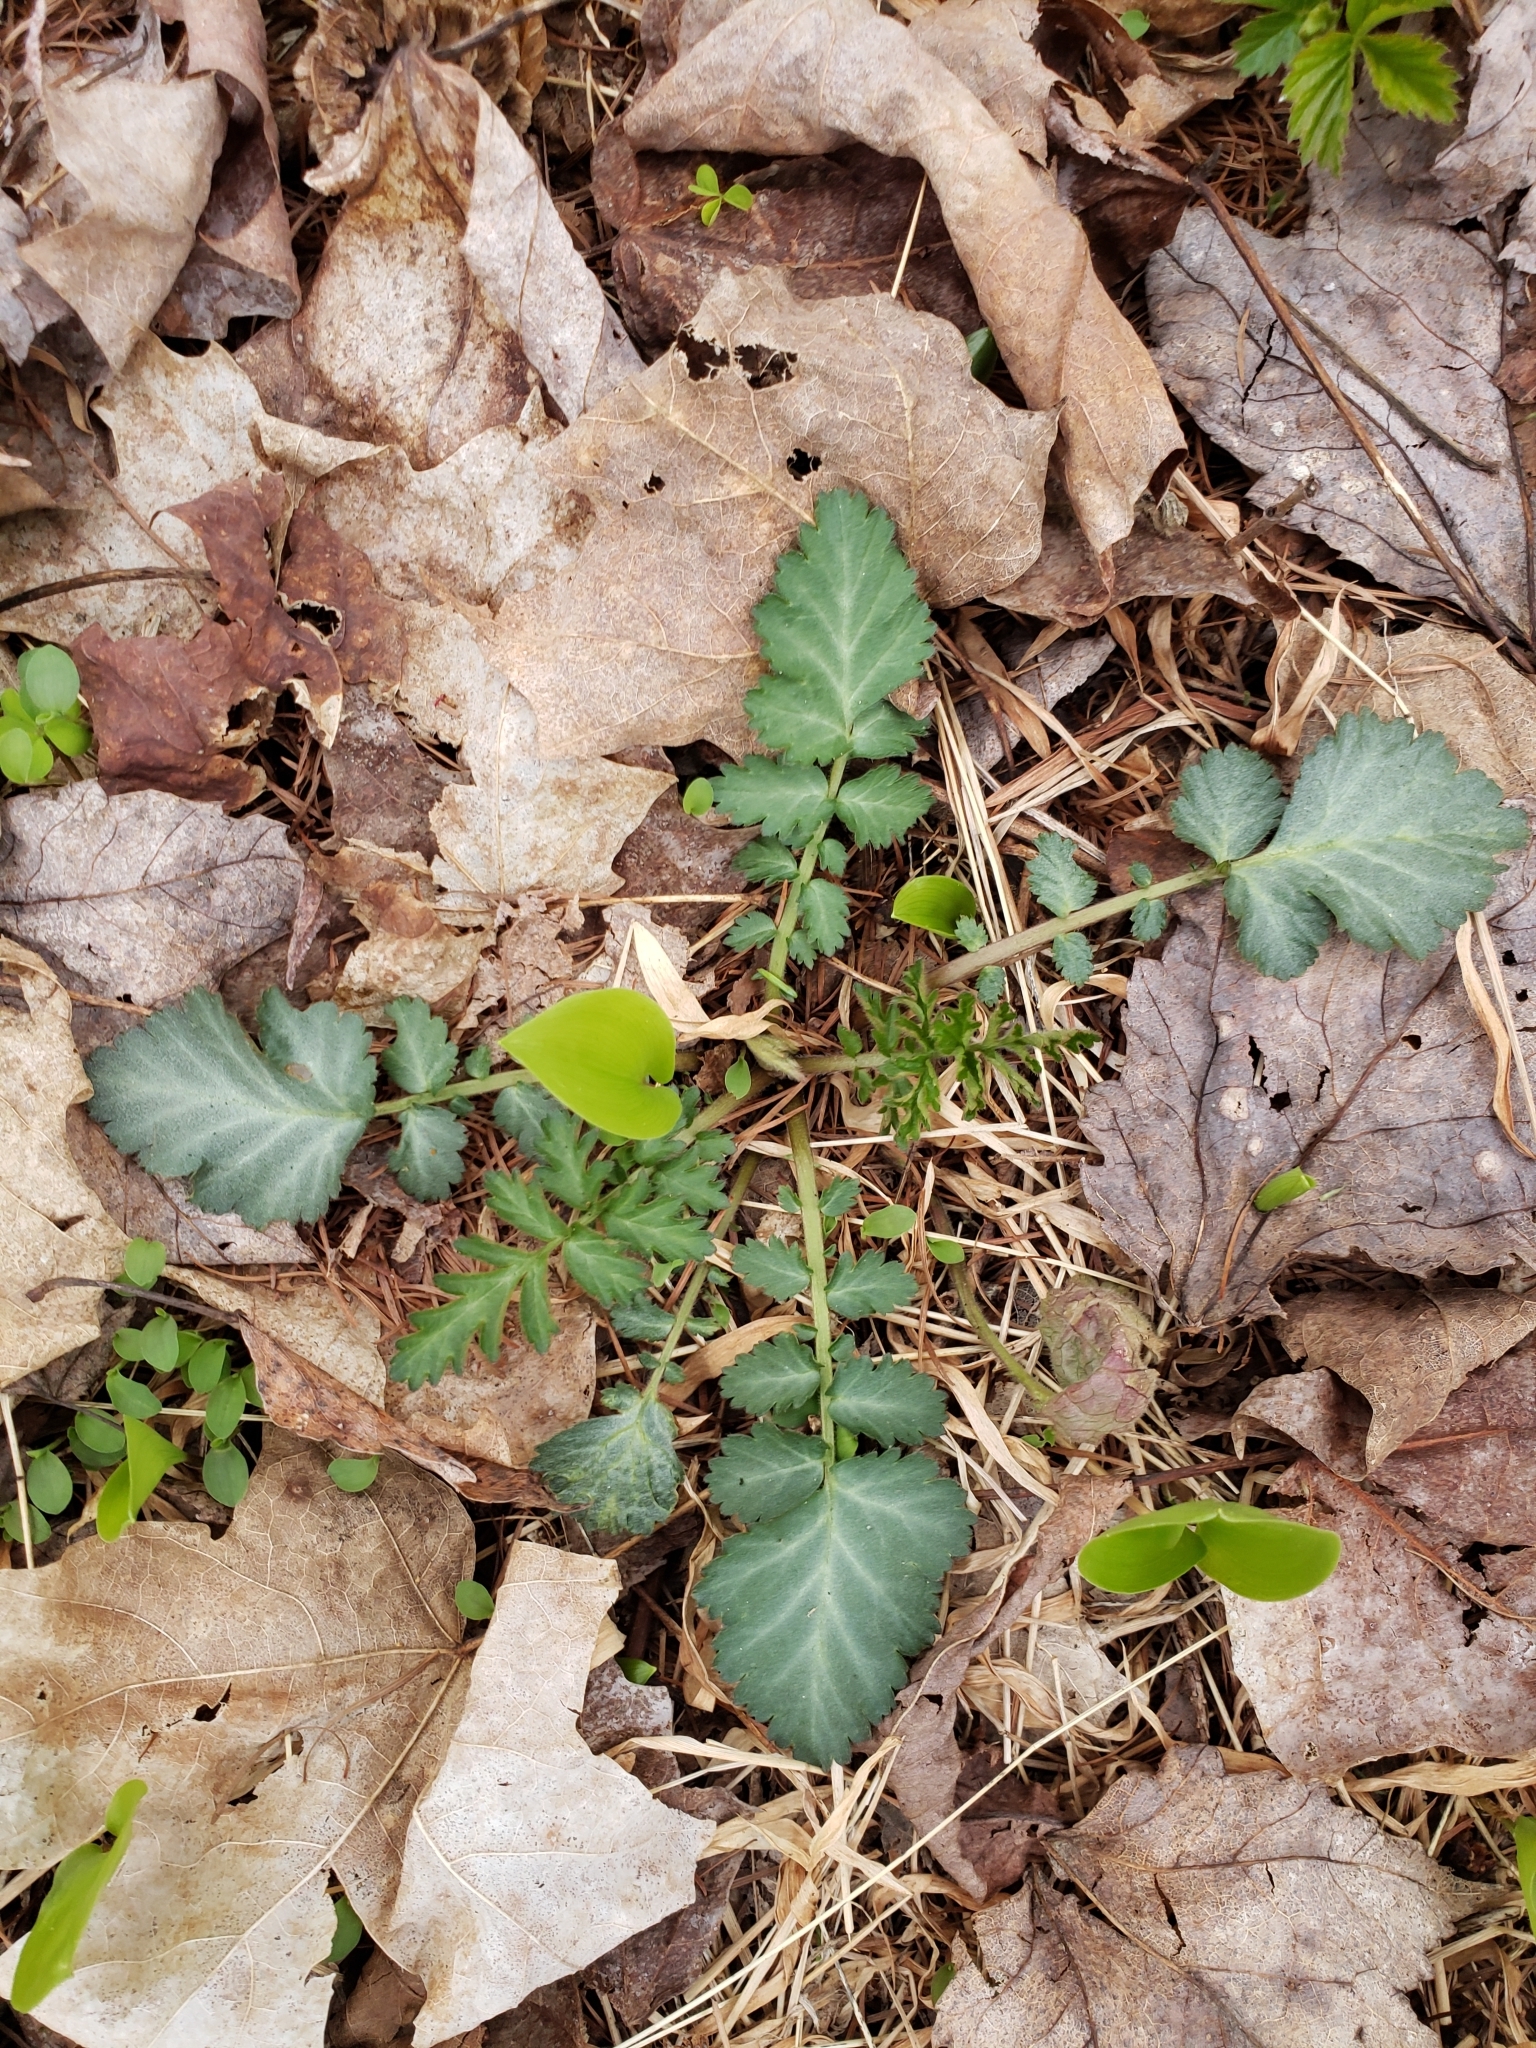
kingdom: Plantae
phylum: Tracheophyta
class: Magnoliopsida
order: Rosales
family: Rosaceae
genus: Geum
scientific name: Geum canadense
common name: White avens
